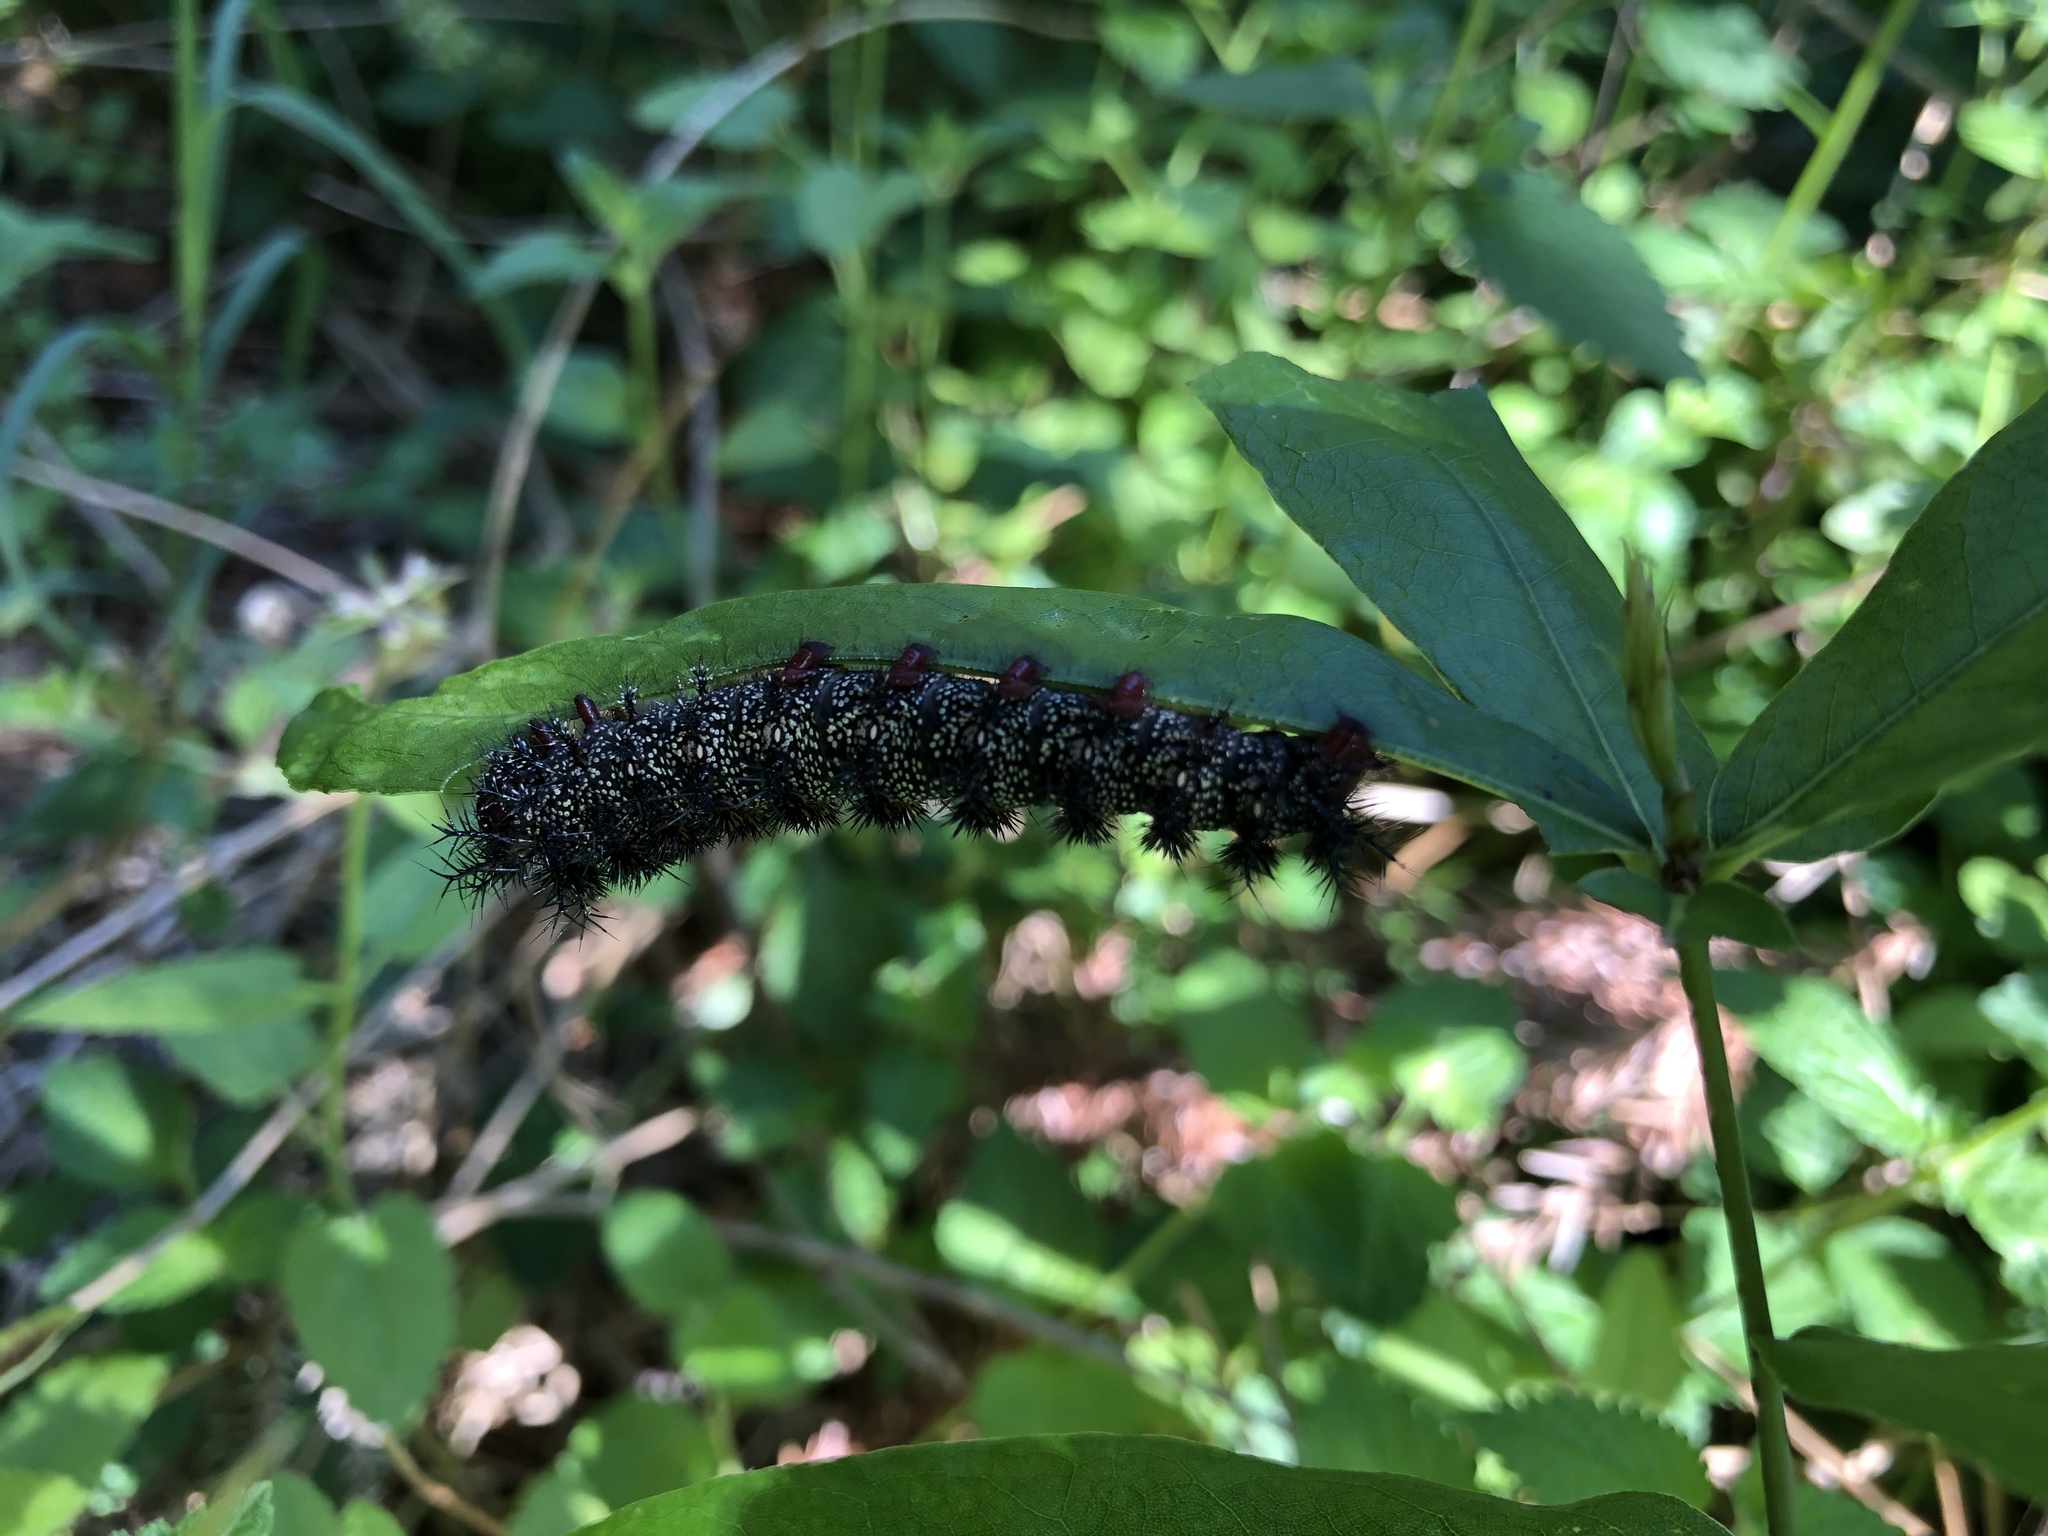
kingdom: Animalia
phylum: Arthropoda
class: Insecta
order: Lepidoptera
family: Saturniidae
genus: Hemileuca
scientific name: Hemileuca maia
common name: Eastern buckmoth
